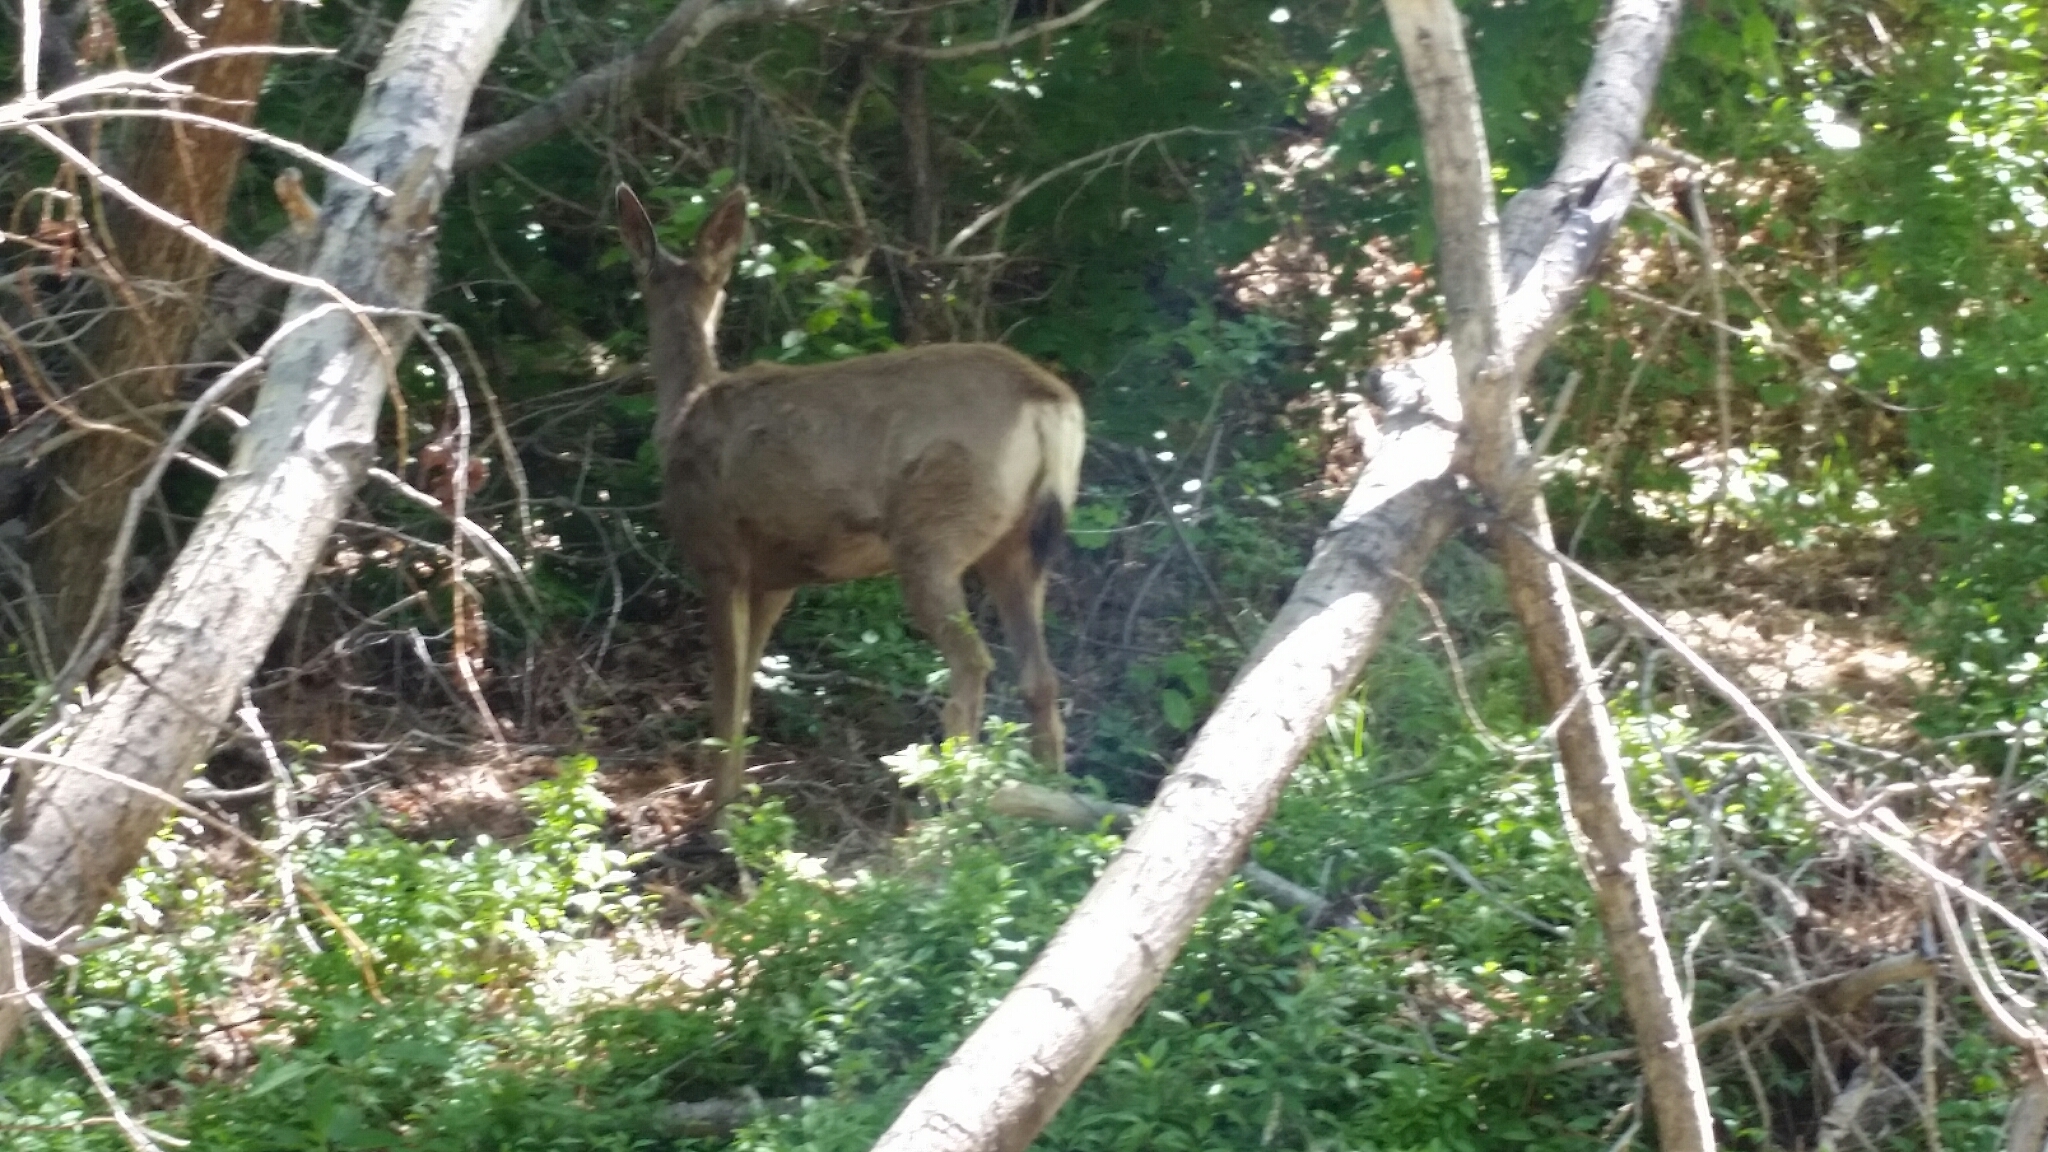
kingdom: Animalia
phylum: Chordata
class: Mammalia
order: Artiodactyla
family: Cervidae
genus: Odocoileus
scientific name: Odocoileus hemionus
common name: Mule deer
